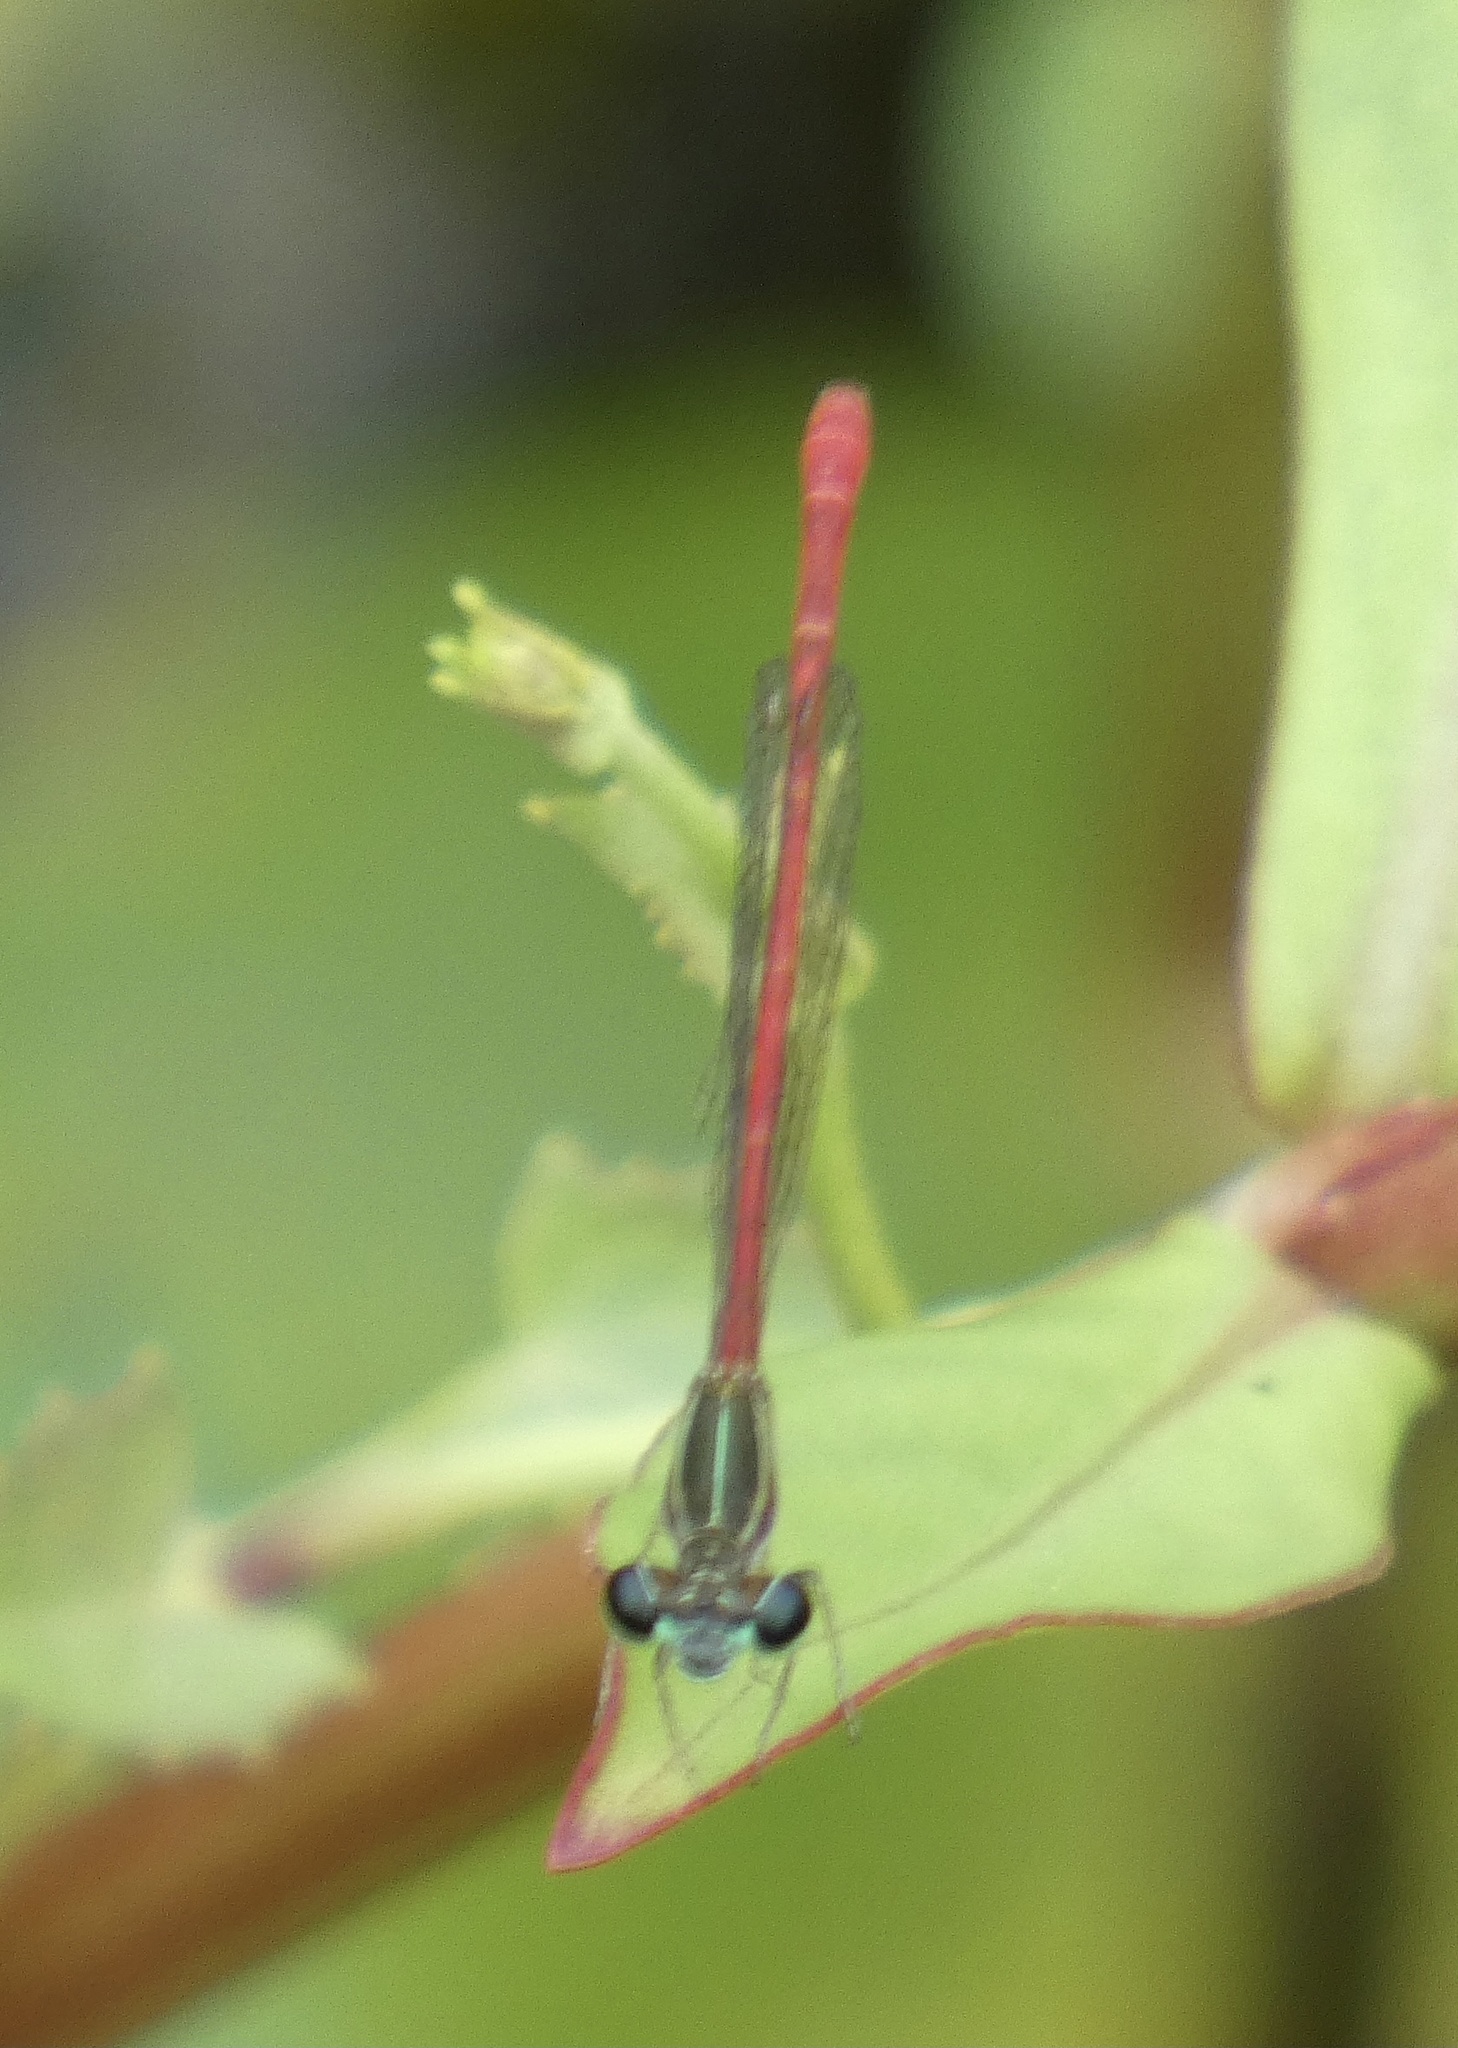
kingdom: Animalia
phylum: Arthropoda
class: Insecta
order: Odonata
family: Coenagrionidae
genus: Telebasis
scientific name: Telebasis filiola
